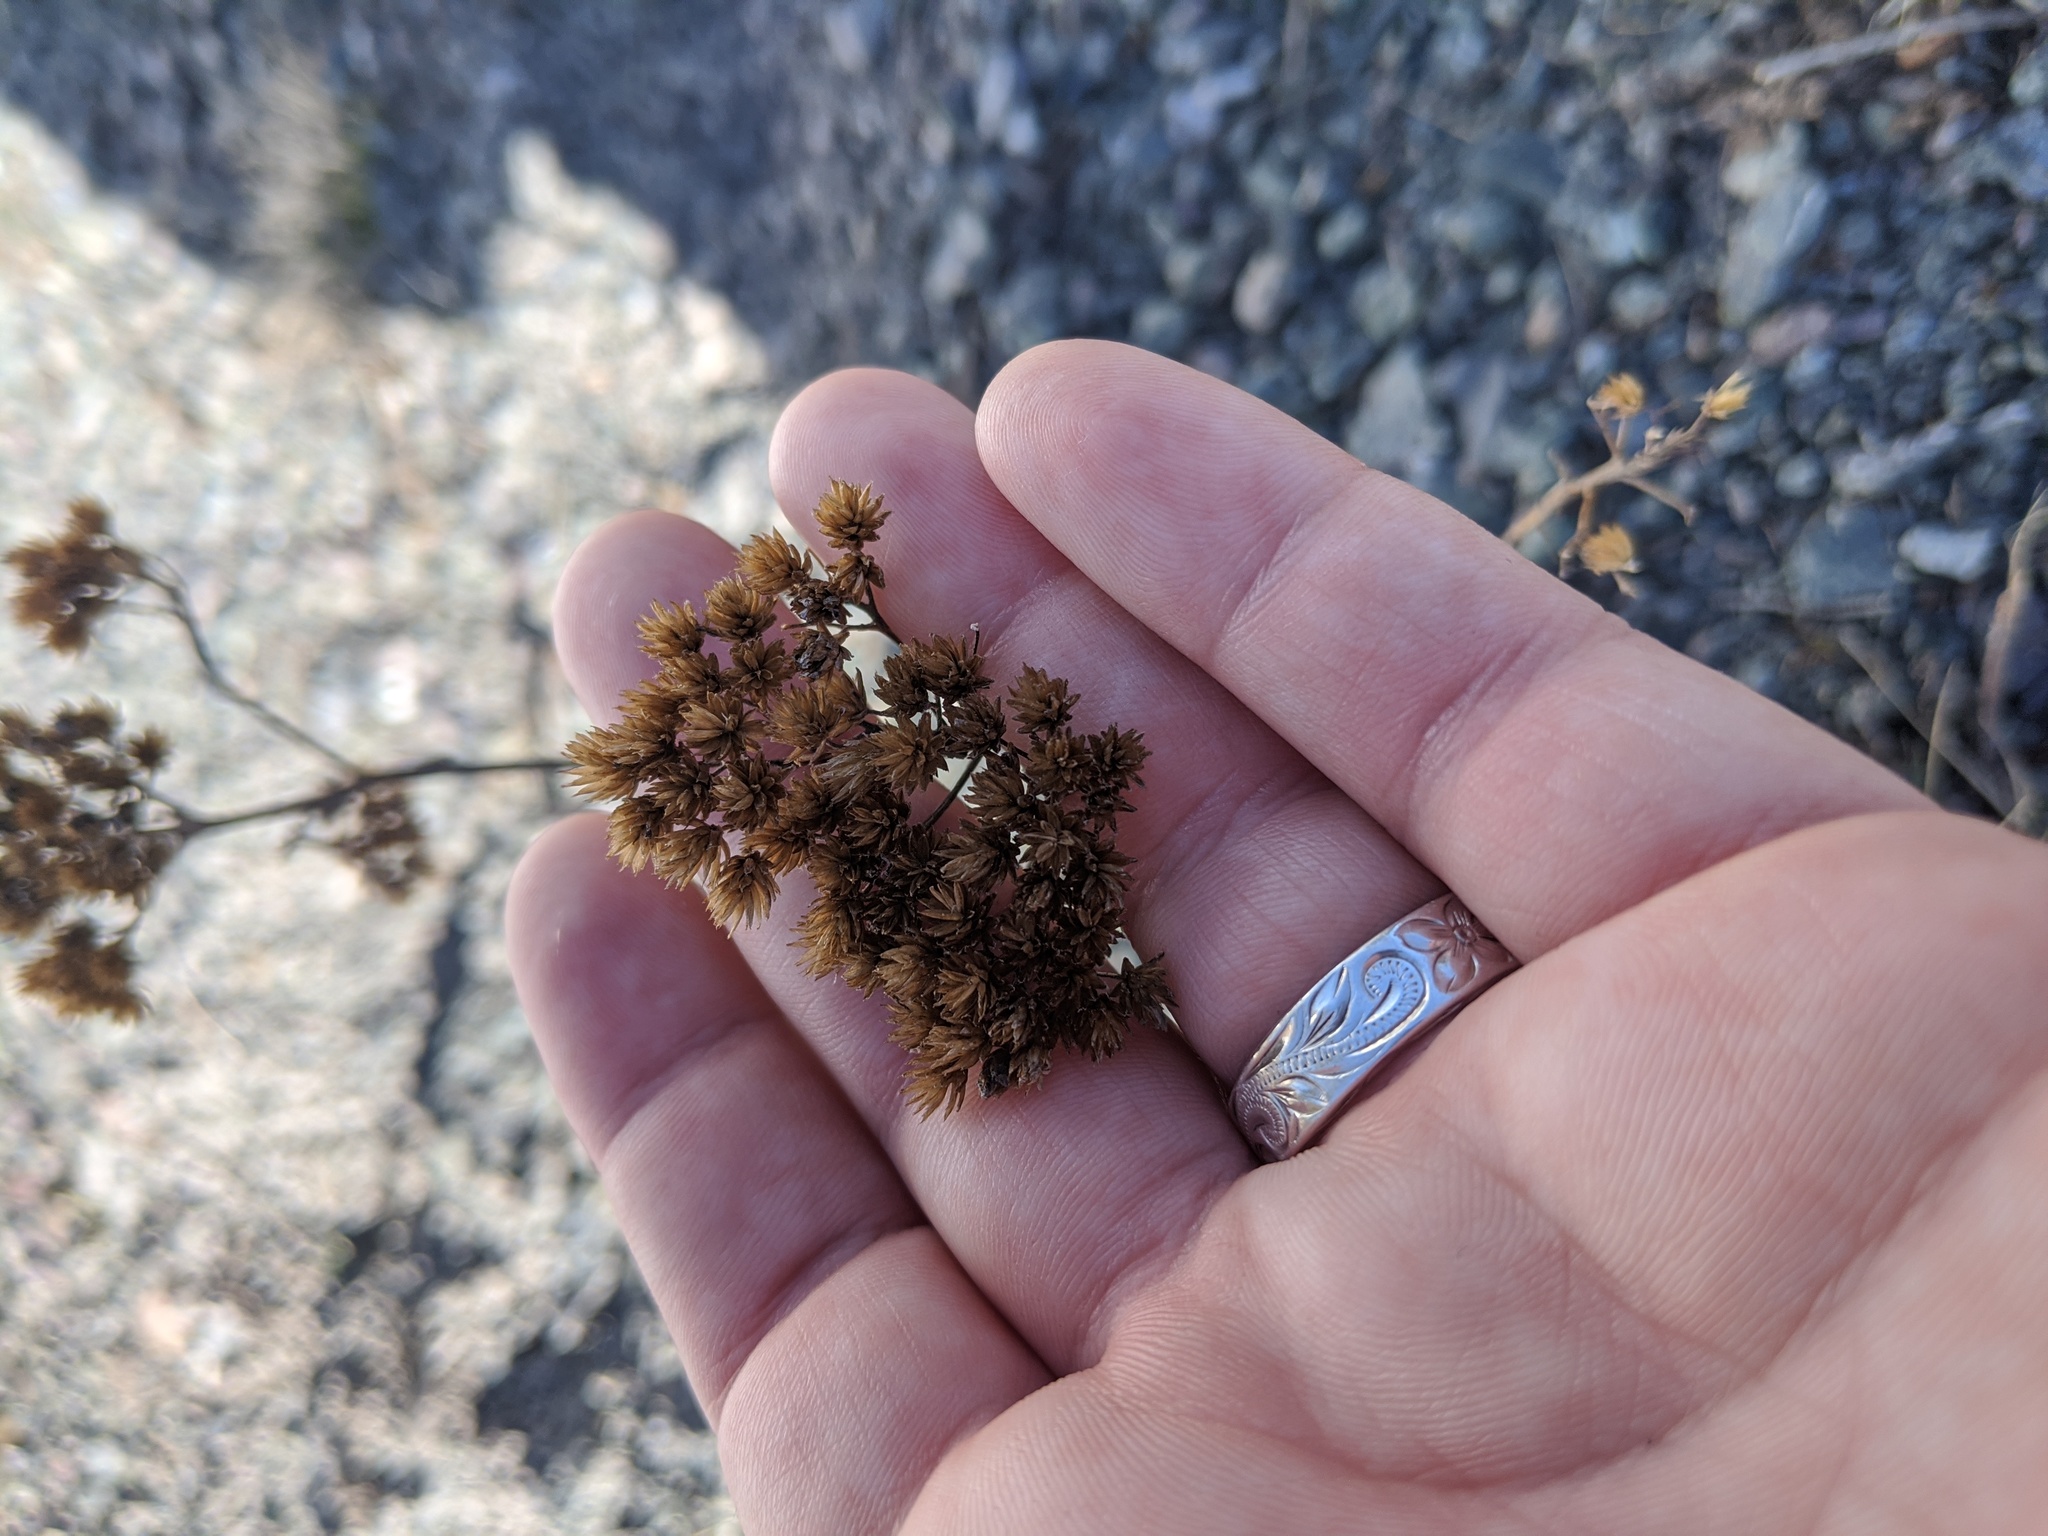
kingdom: Plantae
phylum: Tracheophyta
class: Liliopsida
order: Poales
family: Juncaceae
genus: Juncus
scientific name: Juncus canadensis
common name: Canada rush
